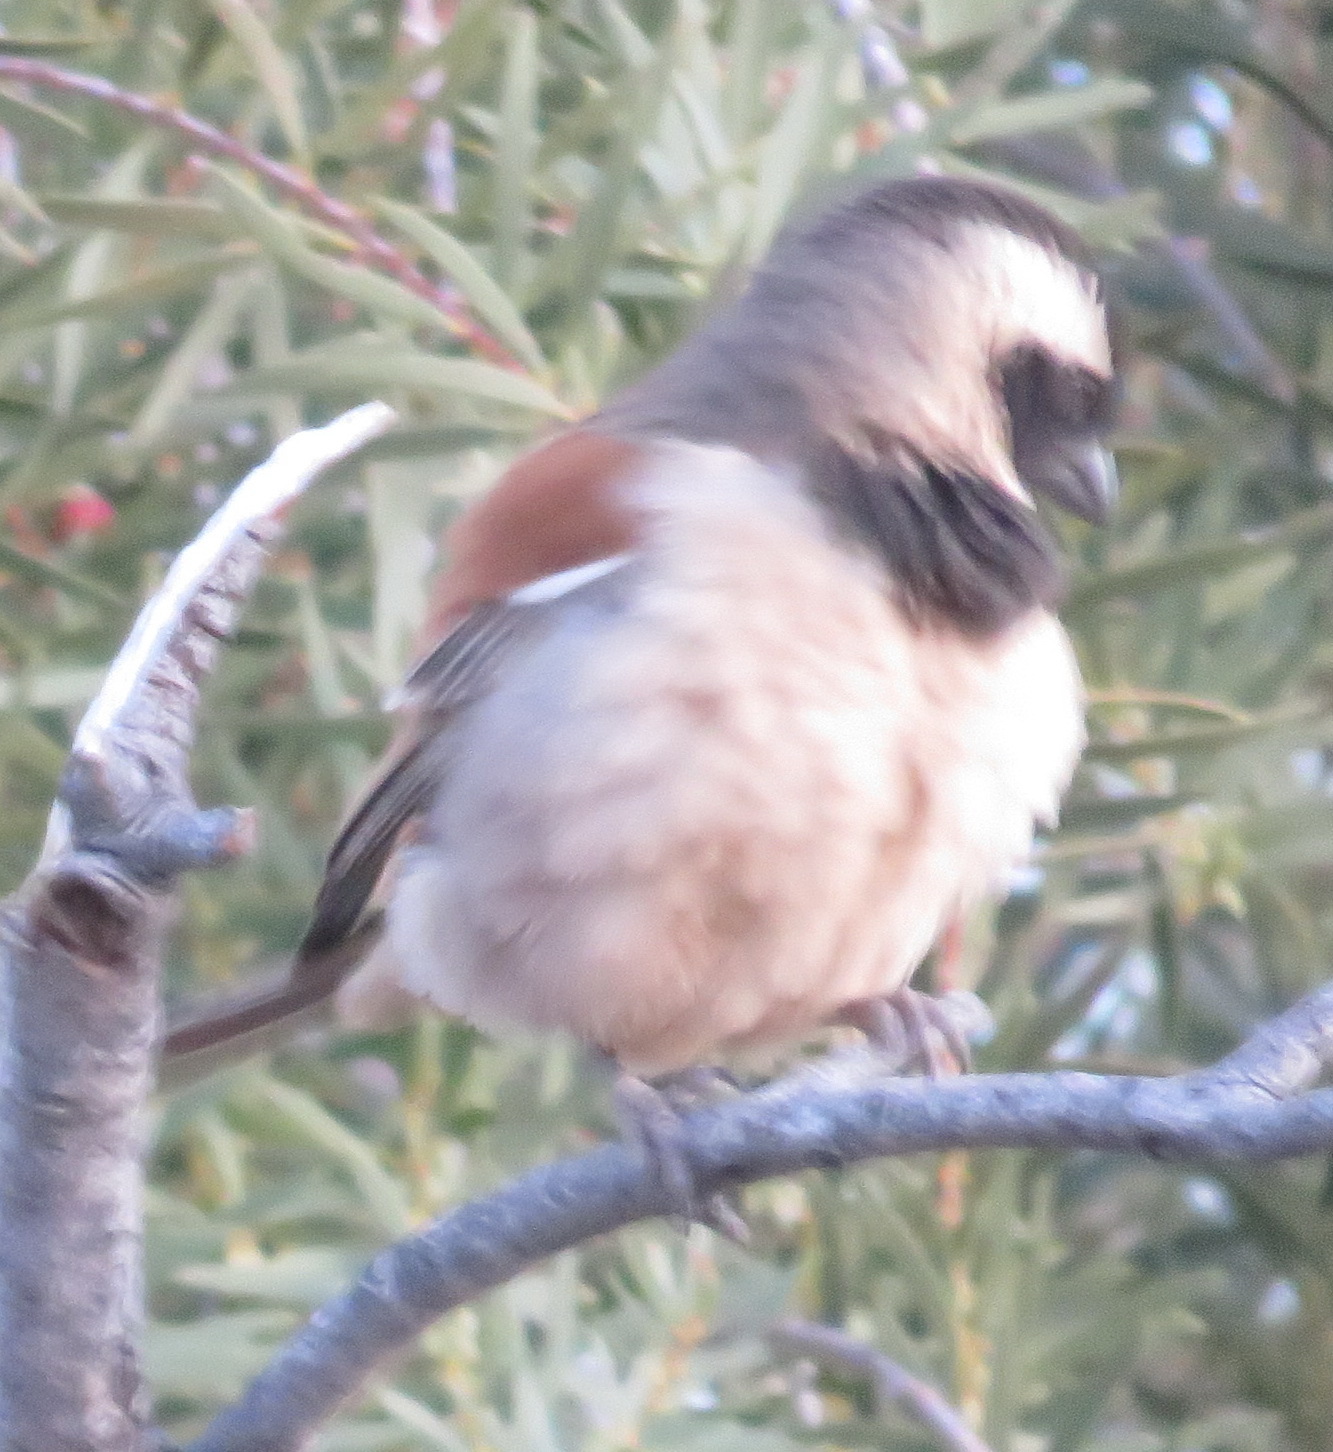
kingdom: Animalia
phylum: Chordata
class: Aves
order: Passeriformes
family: Passeridae
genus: Passer
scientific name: Passer melanurus
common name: Cape sparrow
